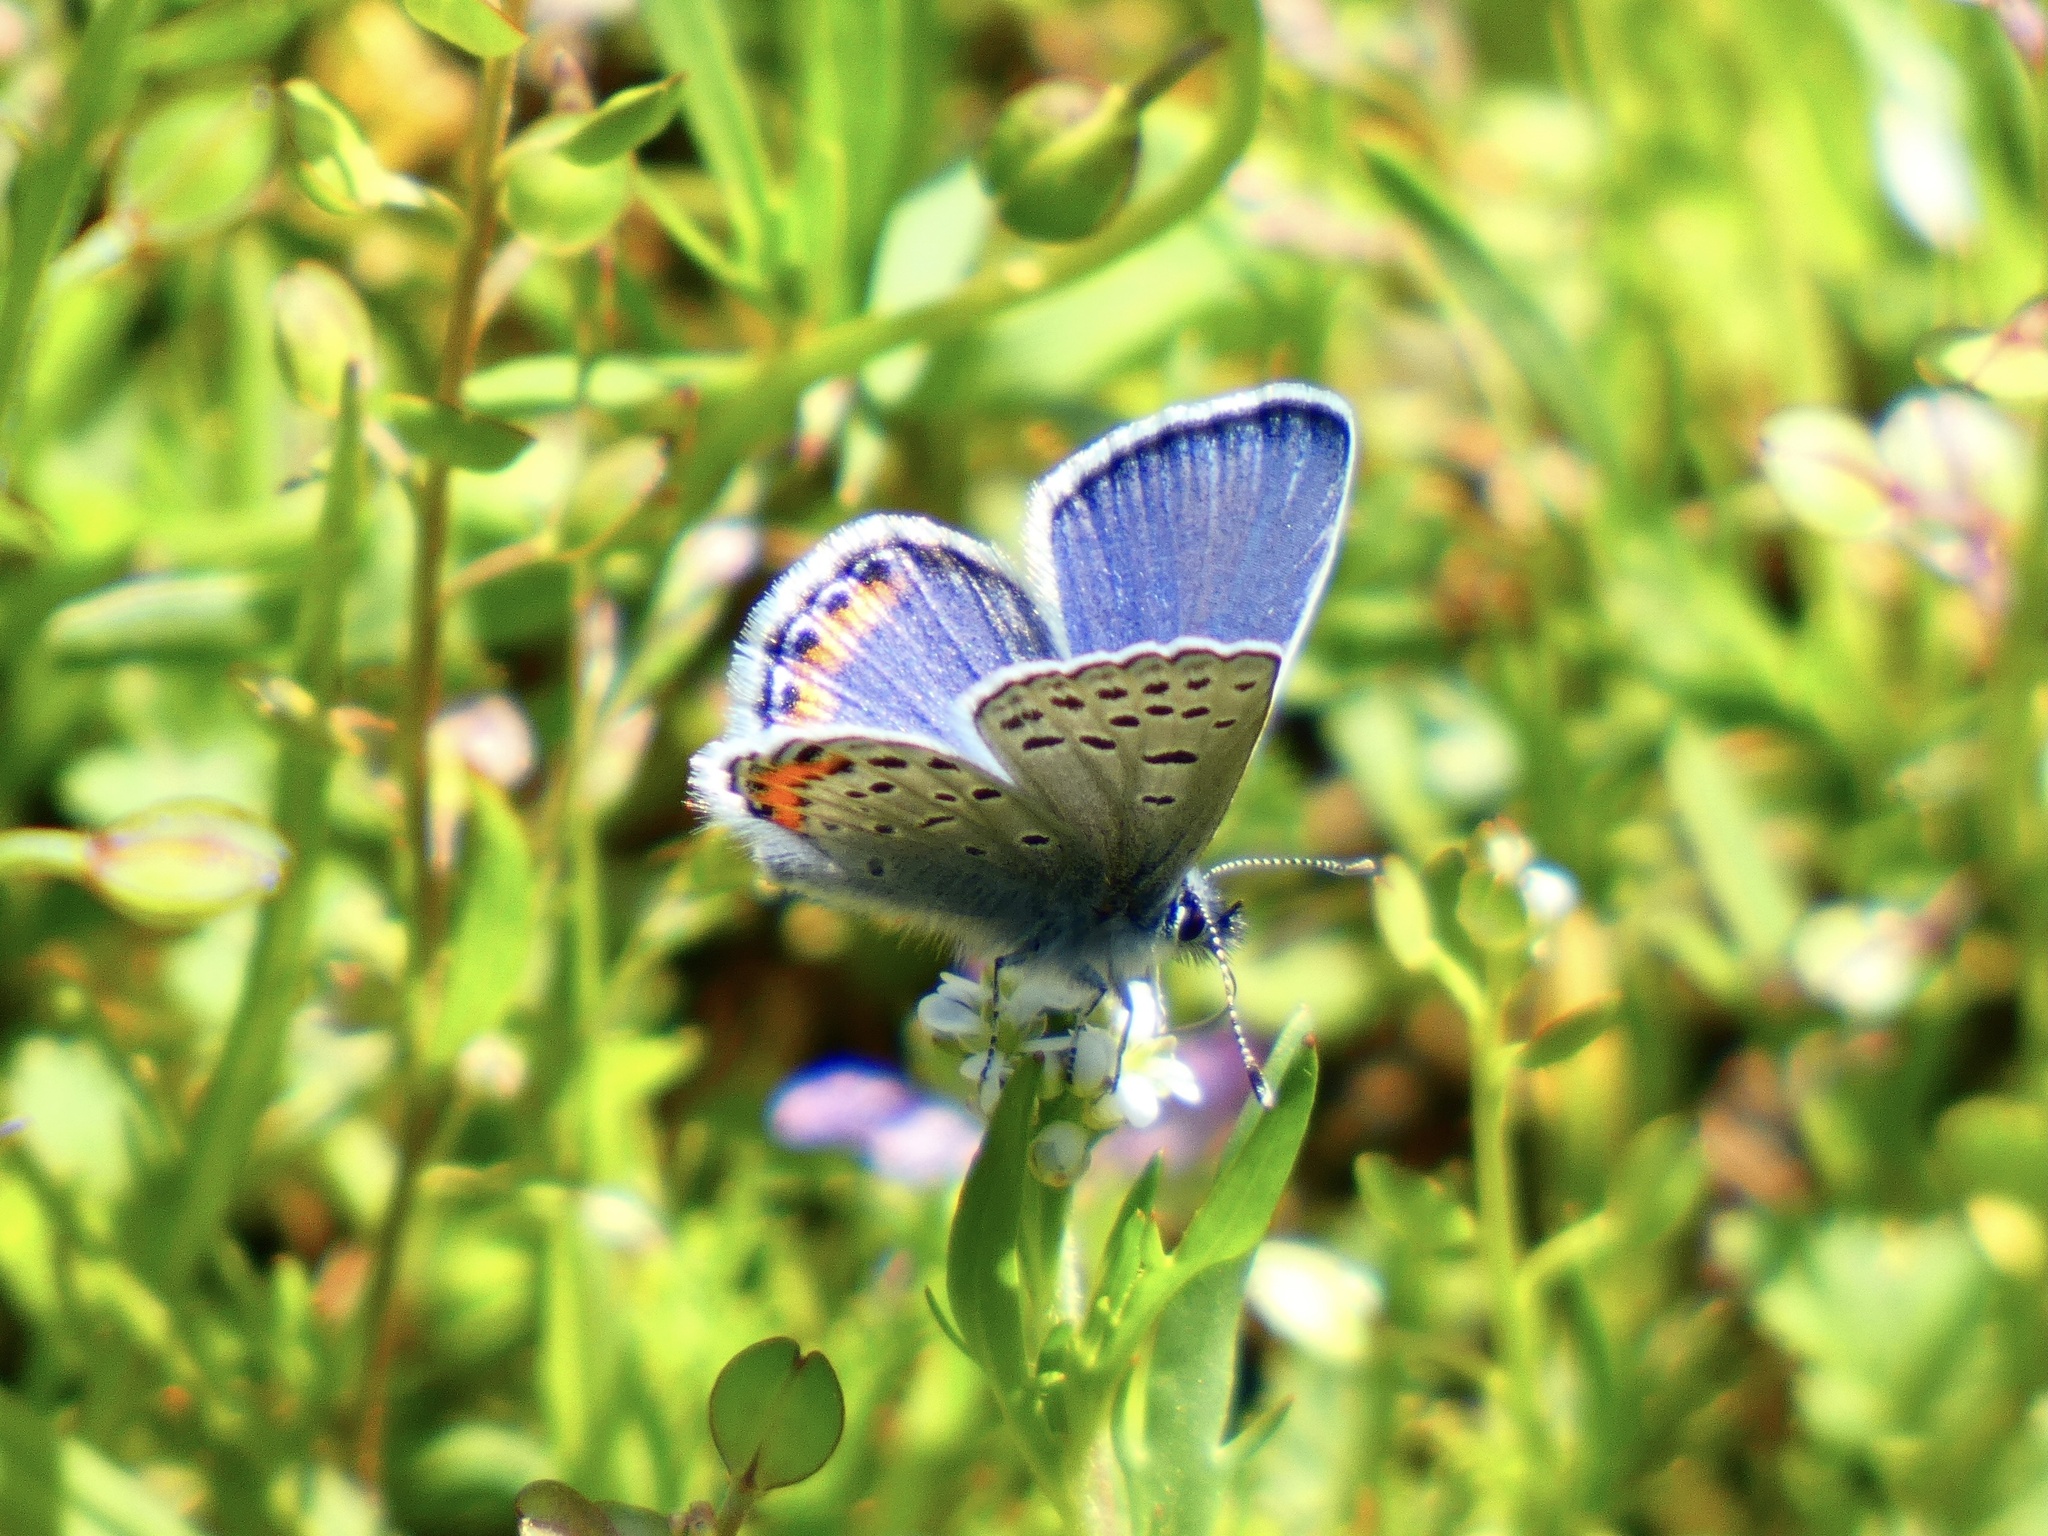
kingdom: Animalia
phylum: Arthropoda
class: Insecta
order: Lepidoptera
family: Lycaenidae
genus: Icaricia
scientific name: Icaricia acmon
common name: Acmon blue
